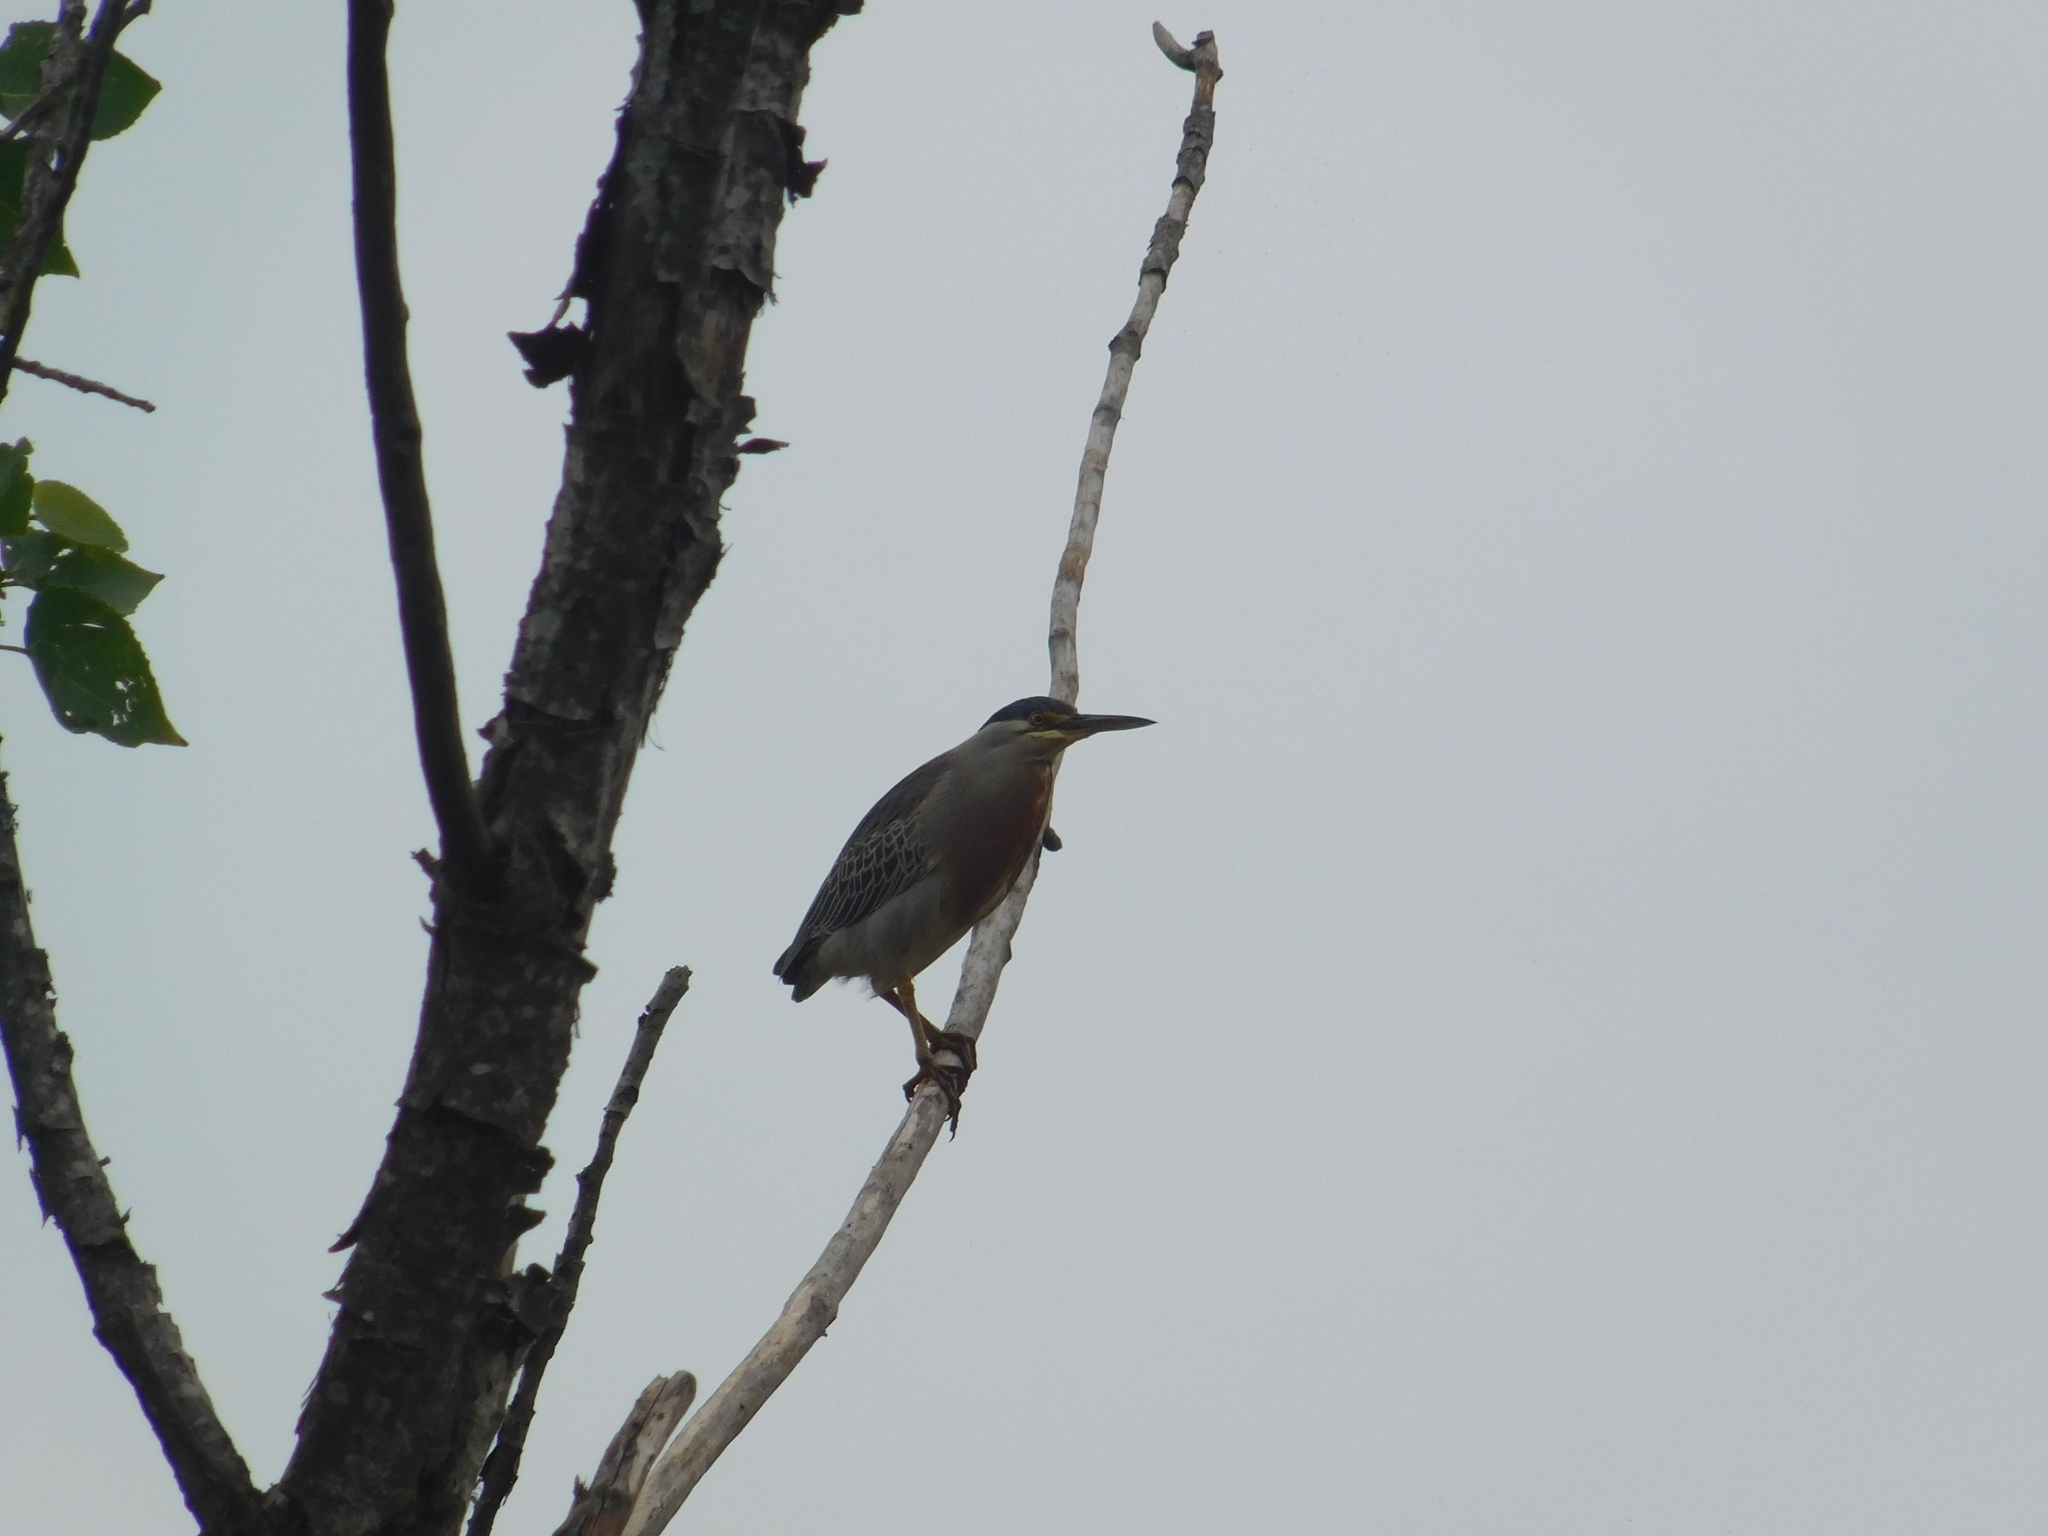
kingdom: Animalia
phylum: Chordata
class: Aves
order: Pelecaniformes
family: Ardeidae
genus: Butorides
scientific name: Butorides striata
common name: Striated heron
